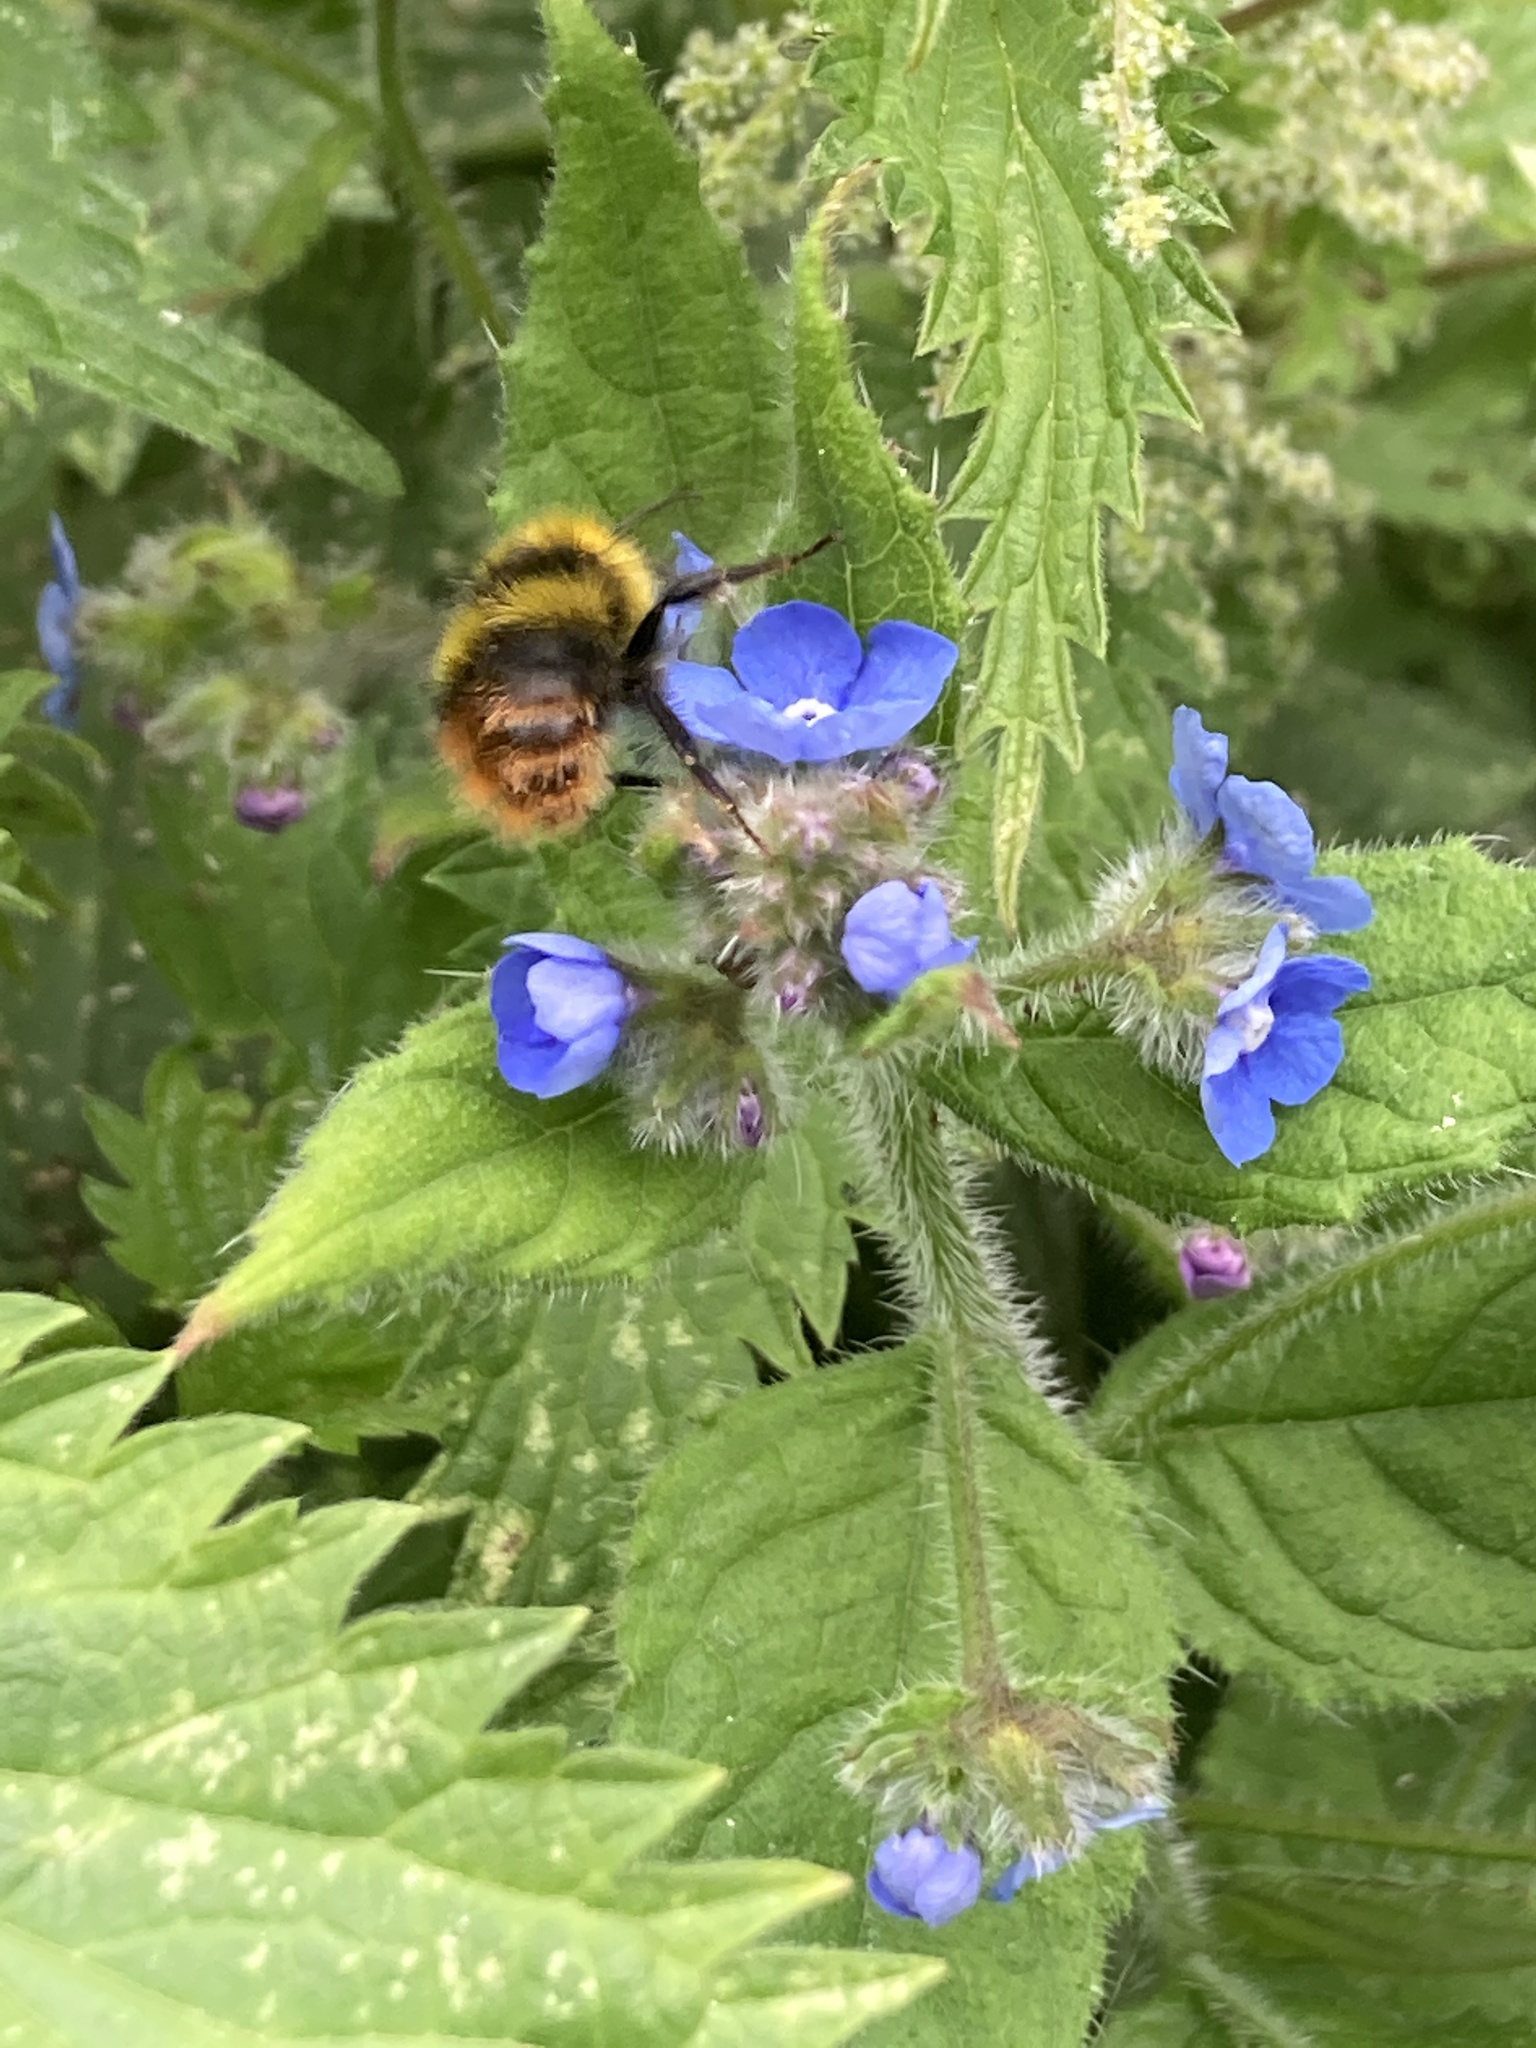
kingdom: Animalia
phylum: Arthropoda
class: Insecta
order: Hymenoptera
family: Apidae
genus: Bombus
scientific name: Bombus pratorum
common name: Early humble-bee
